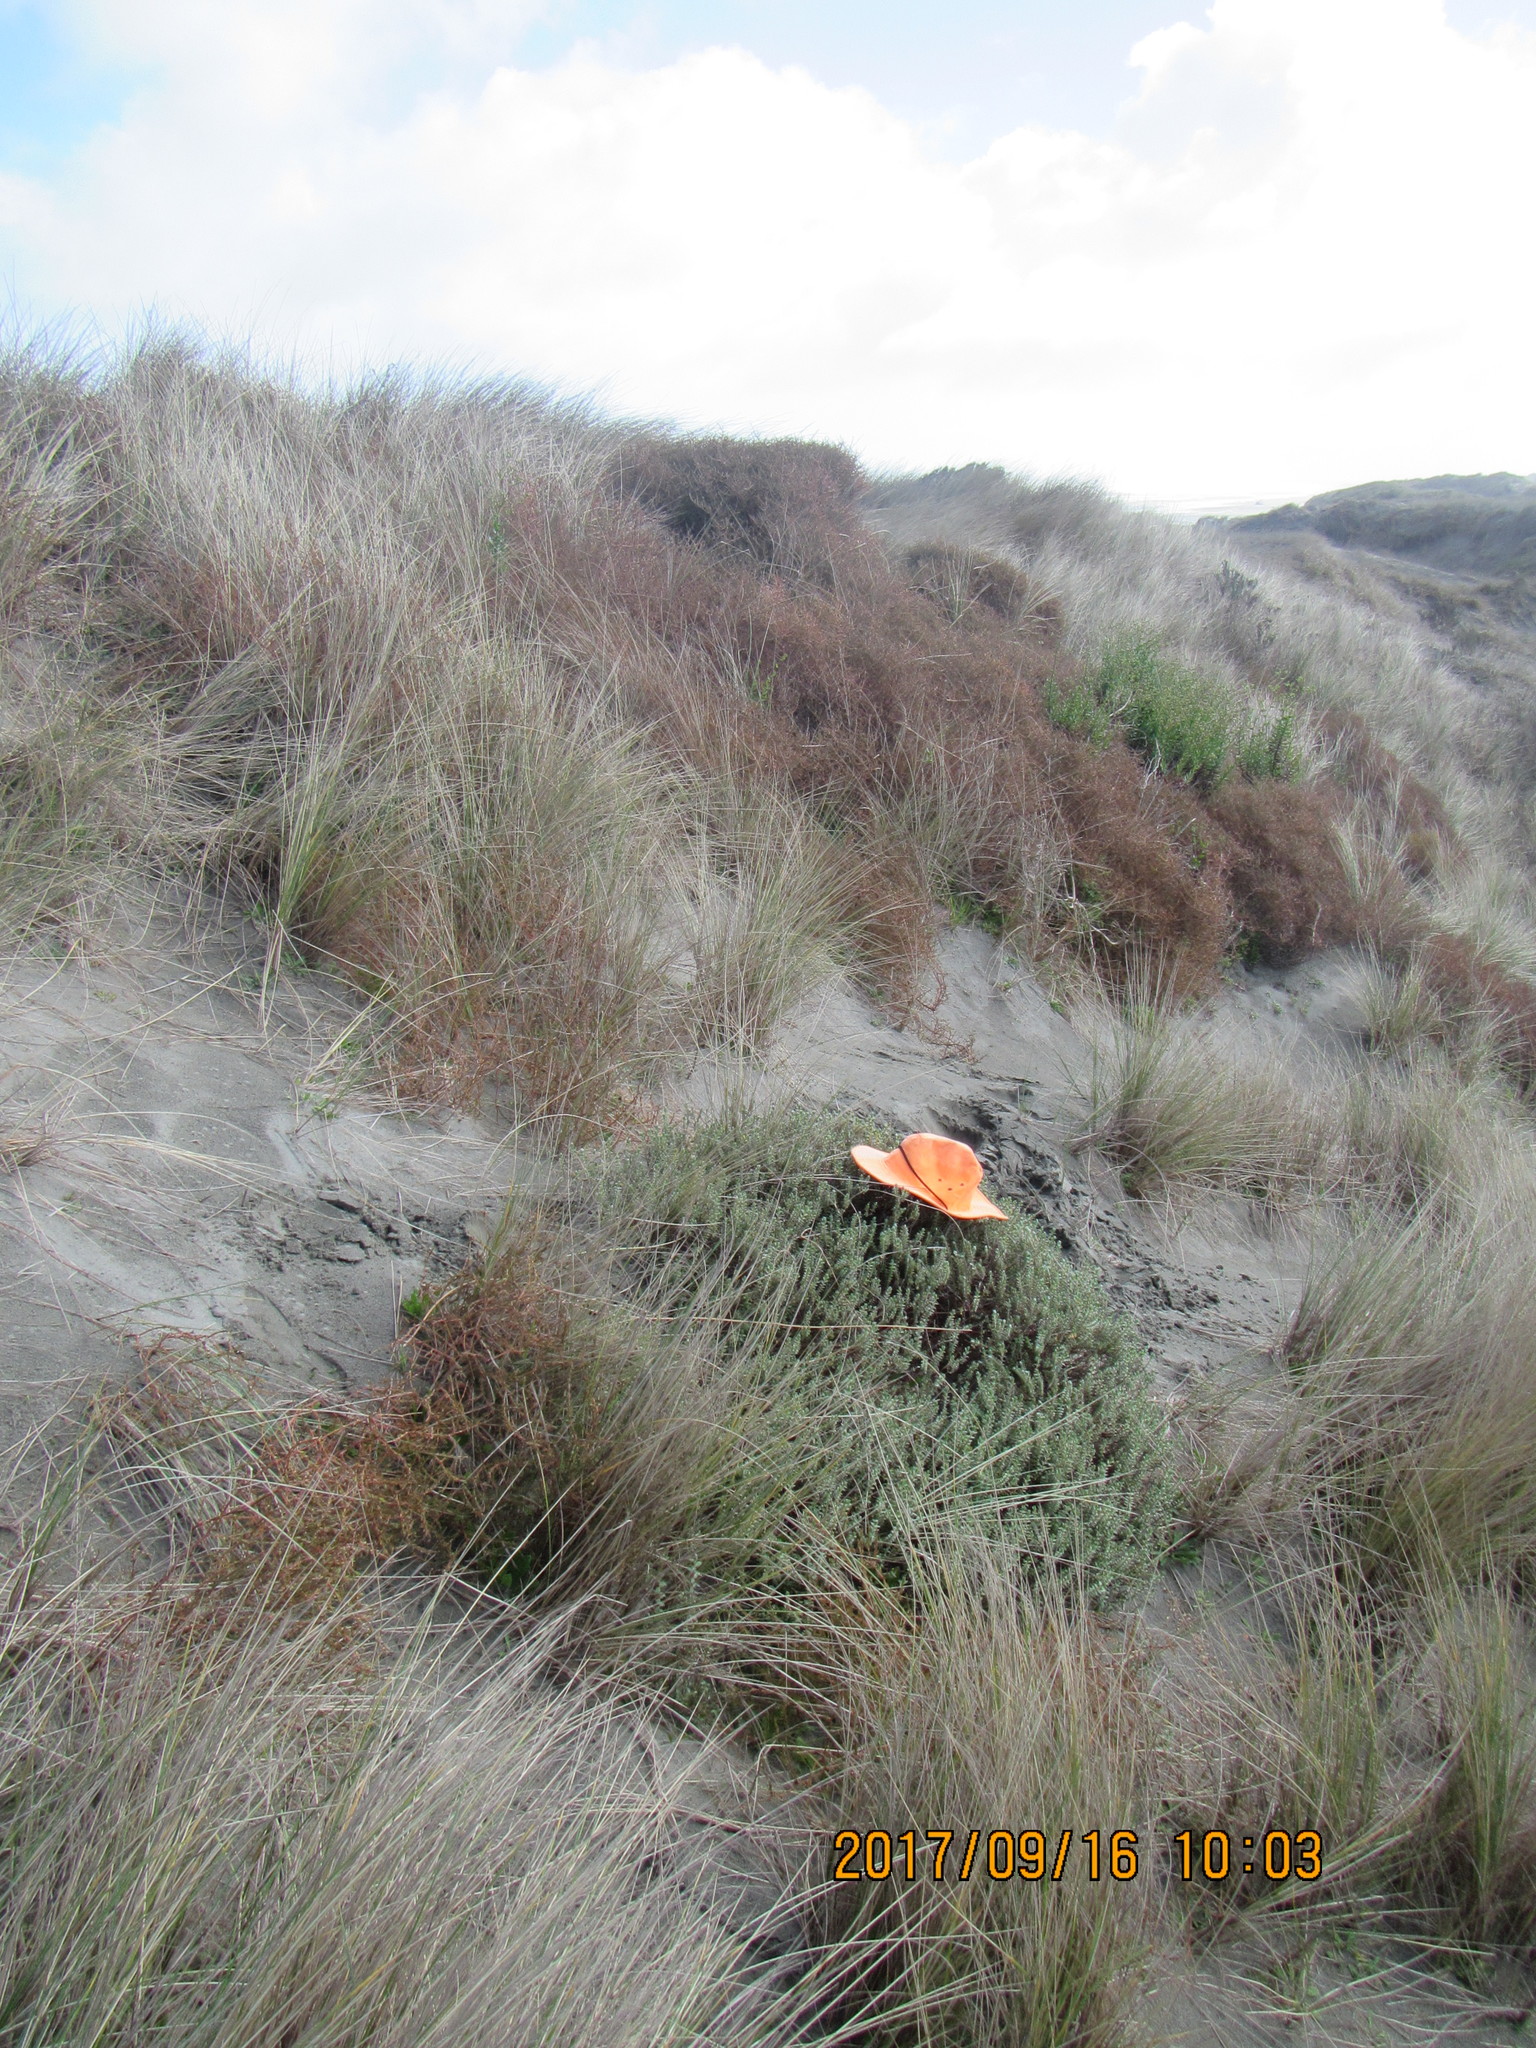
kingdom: Plantae
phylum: Tracheophyta
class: Magnoliopsida
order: Malvales
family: Thymelaeaceae
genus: Pimelea
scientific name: Pimelea villosa
